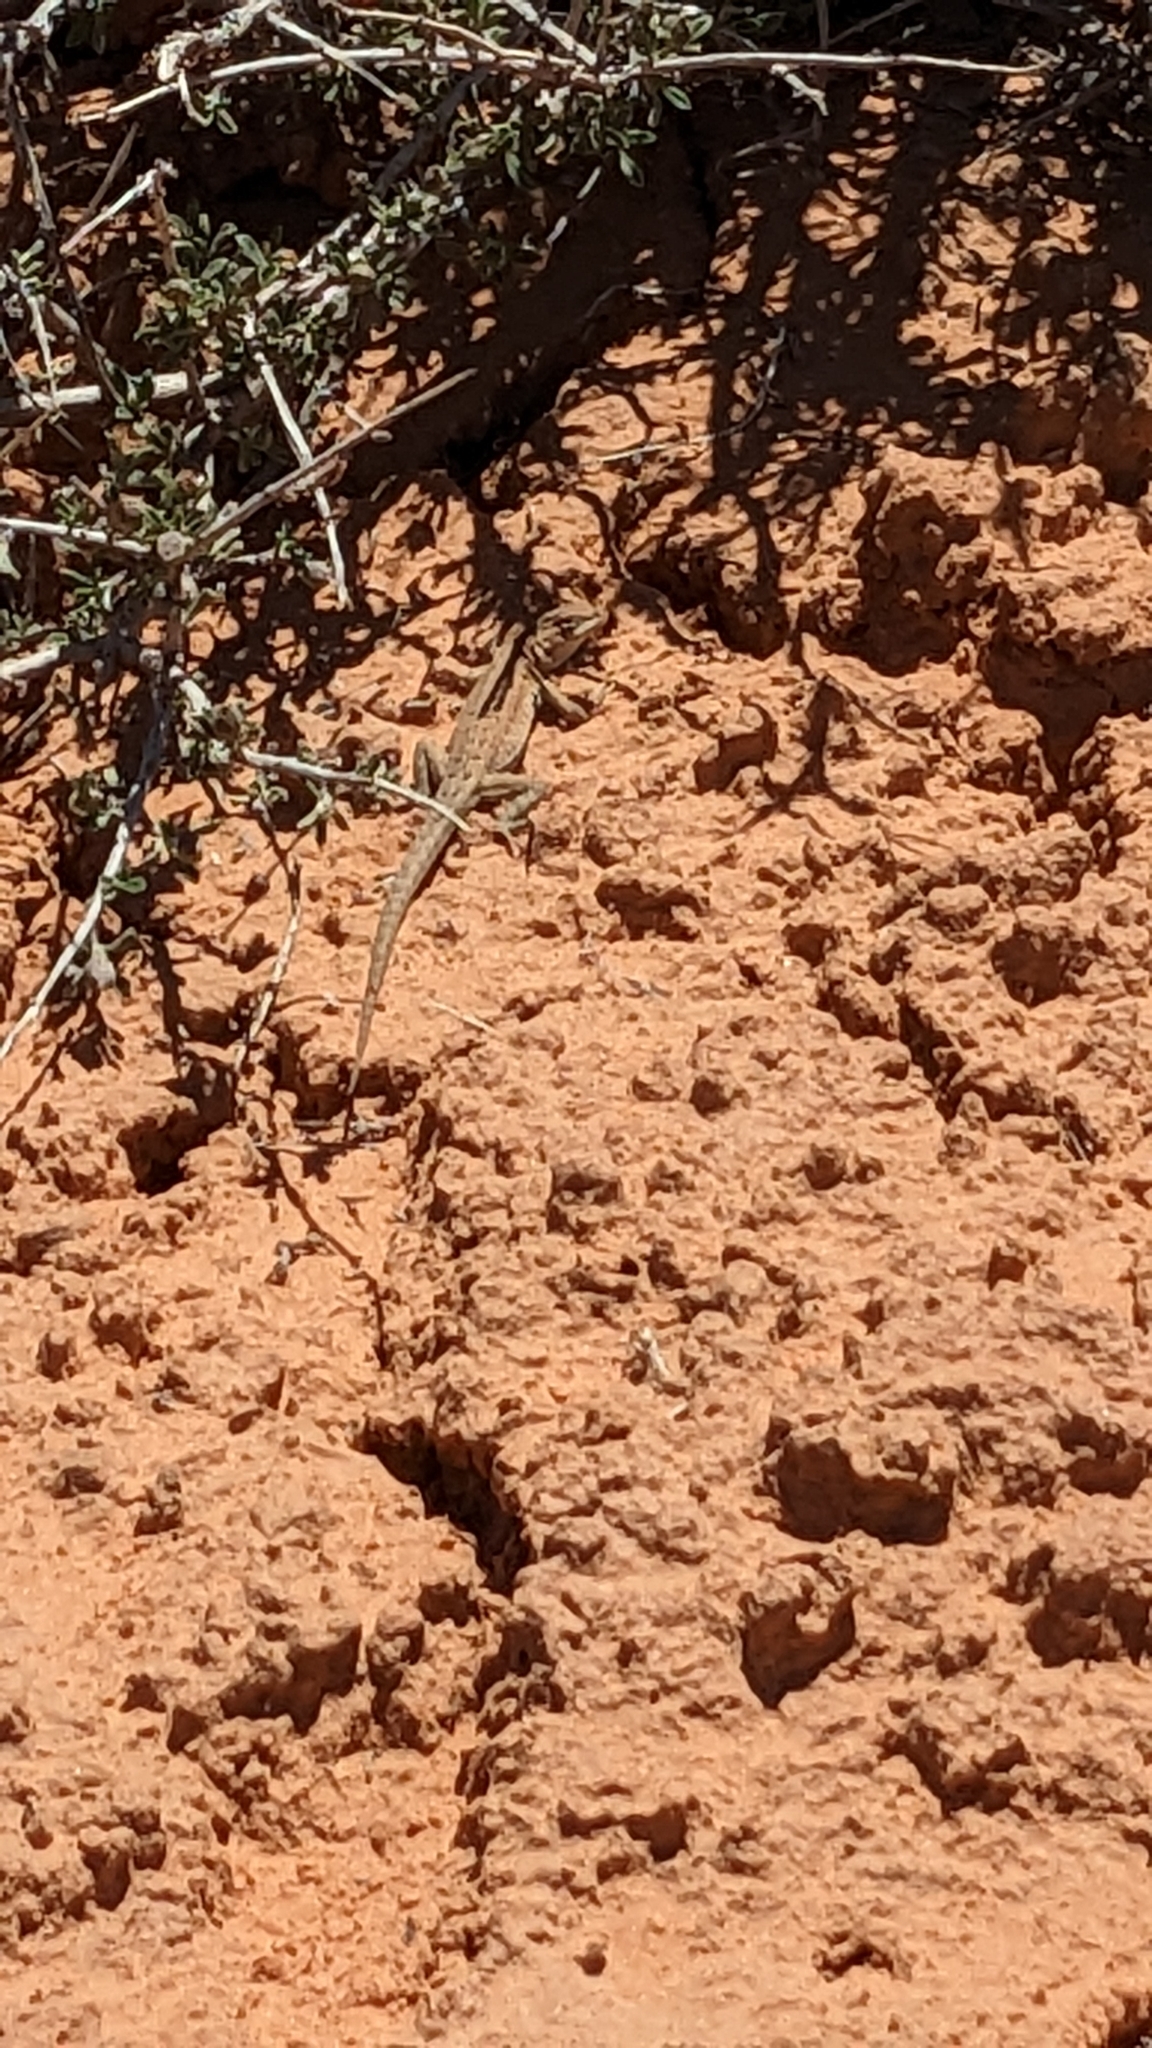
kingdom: Animalia
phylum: Chordata
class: Squamata
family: Phrynosomatidae
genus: Uta
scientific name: Uta stansburiana
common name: Side-blotched lizard
